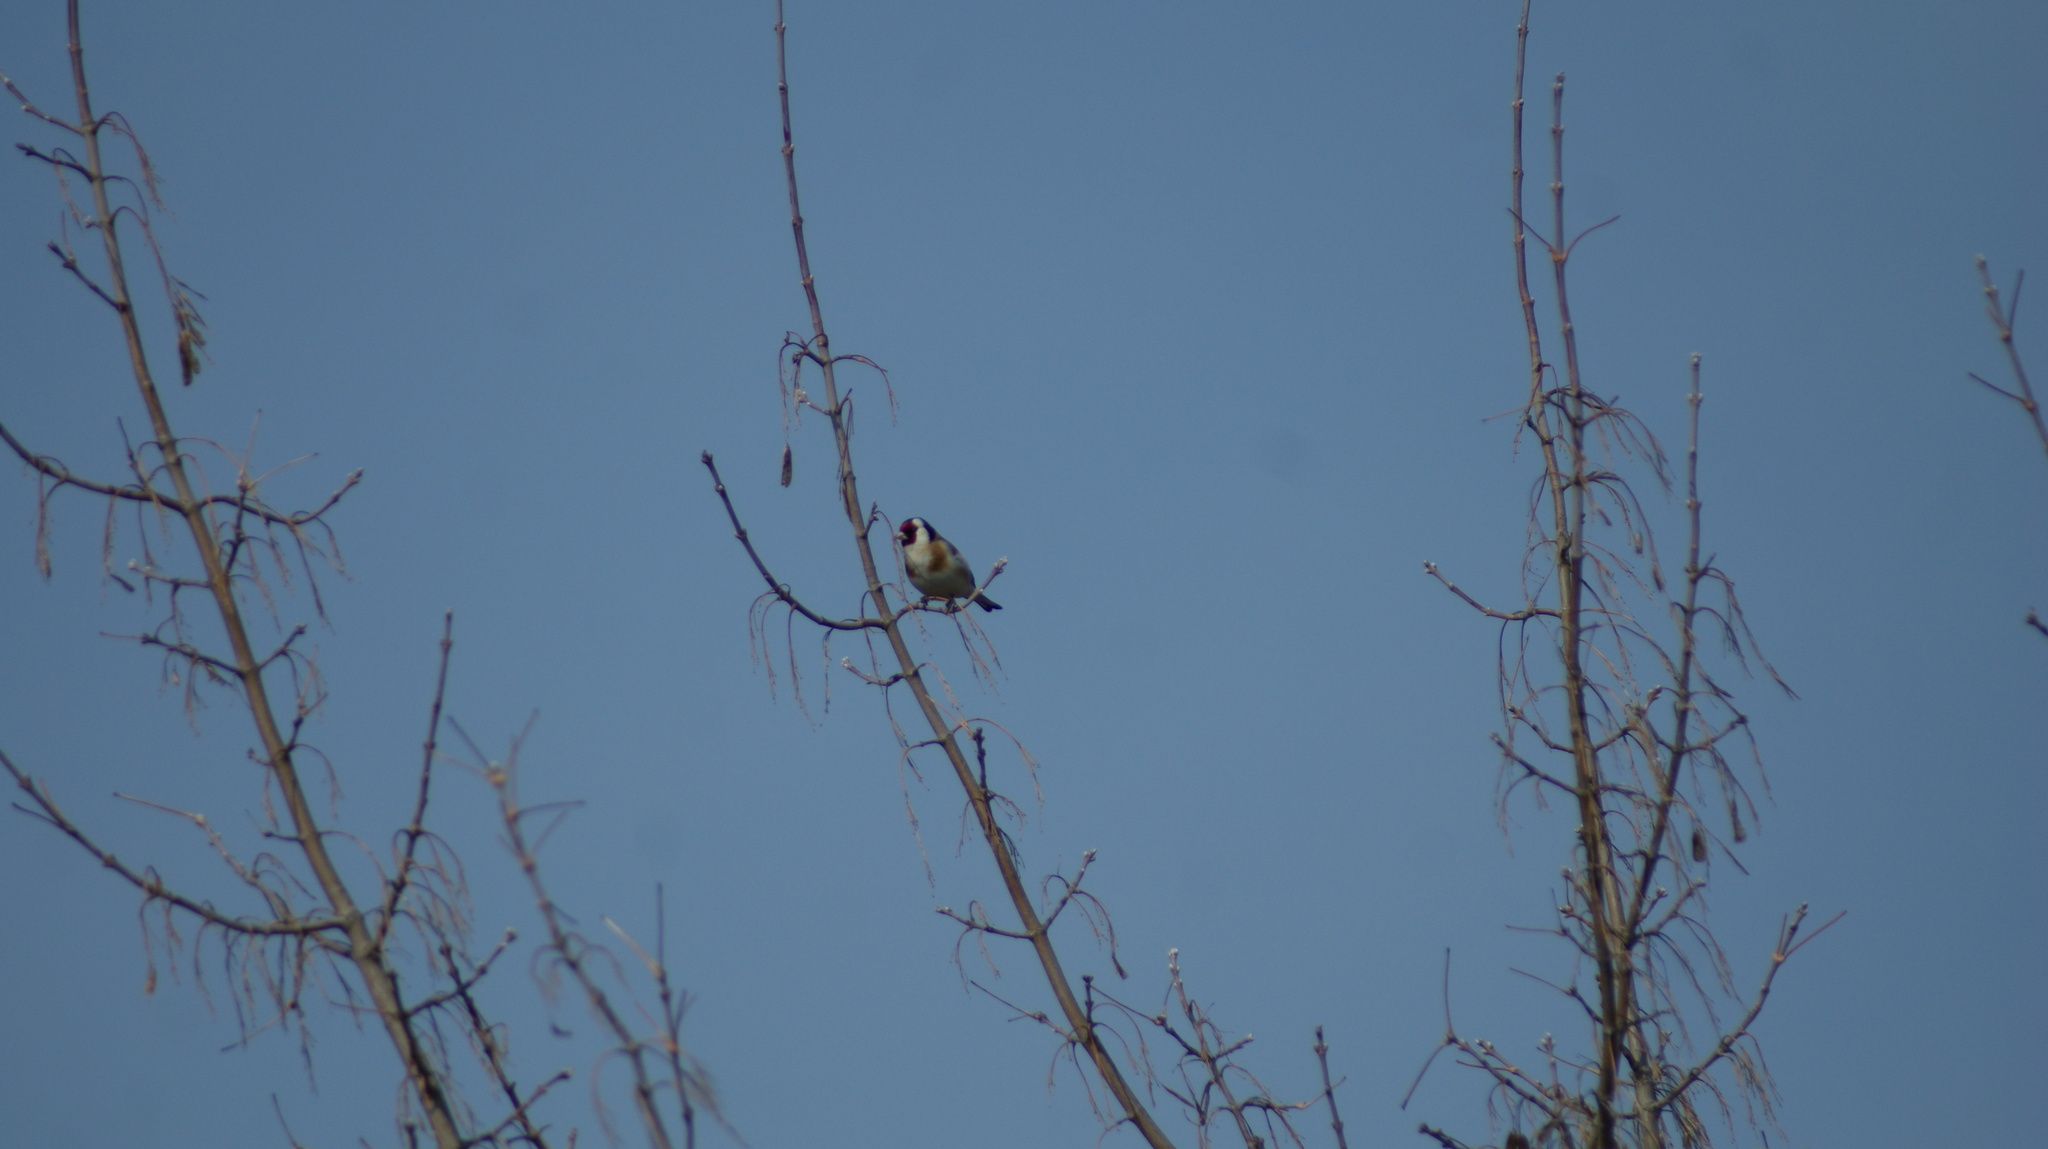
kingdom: Animalia
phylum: Chordata
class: Aves
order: Passeriformes
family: Fringillidae
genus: Carduelis
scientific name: Carduelis carduelis
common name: European goldfinch
